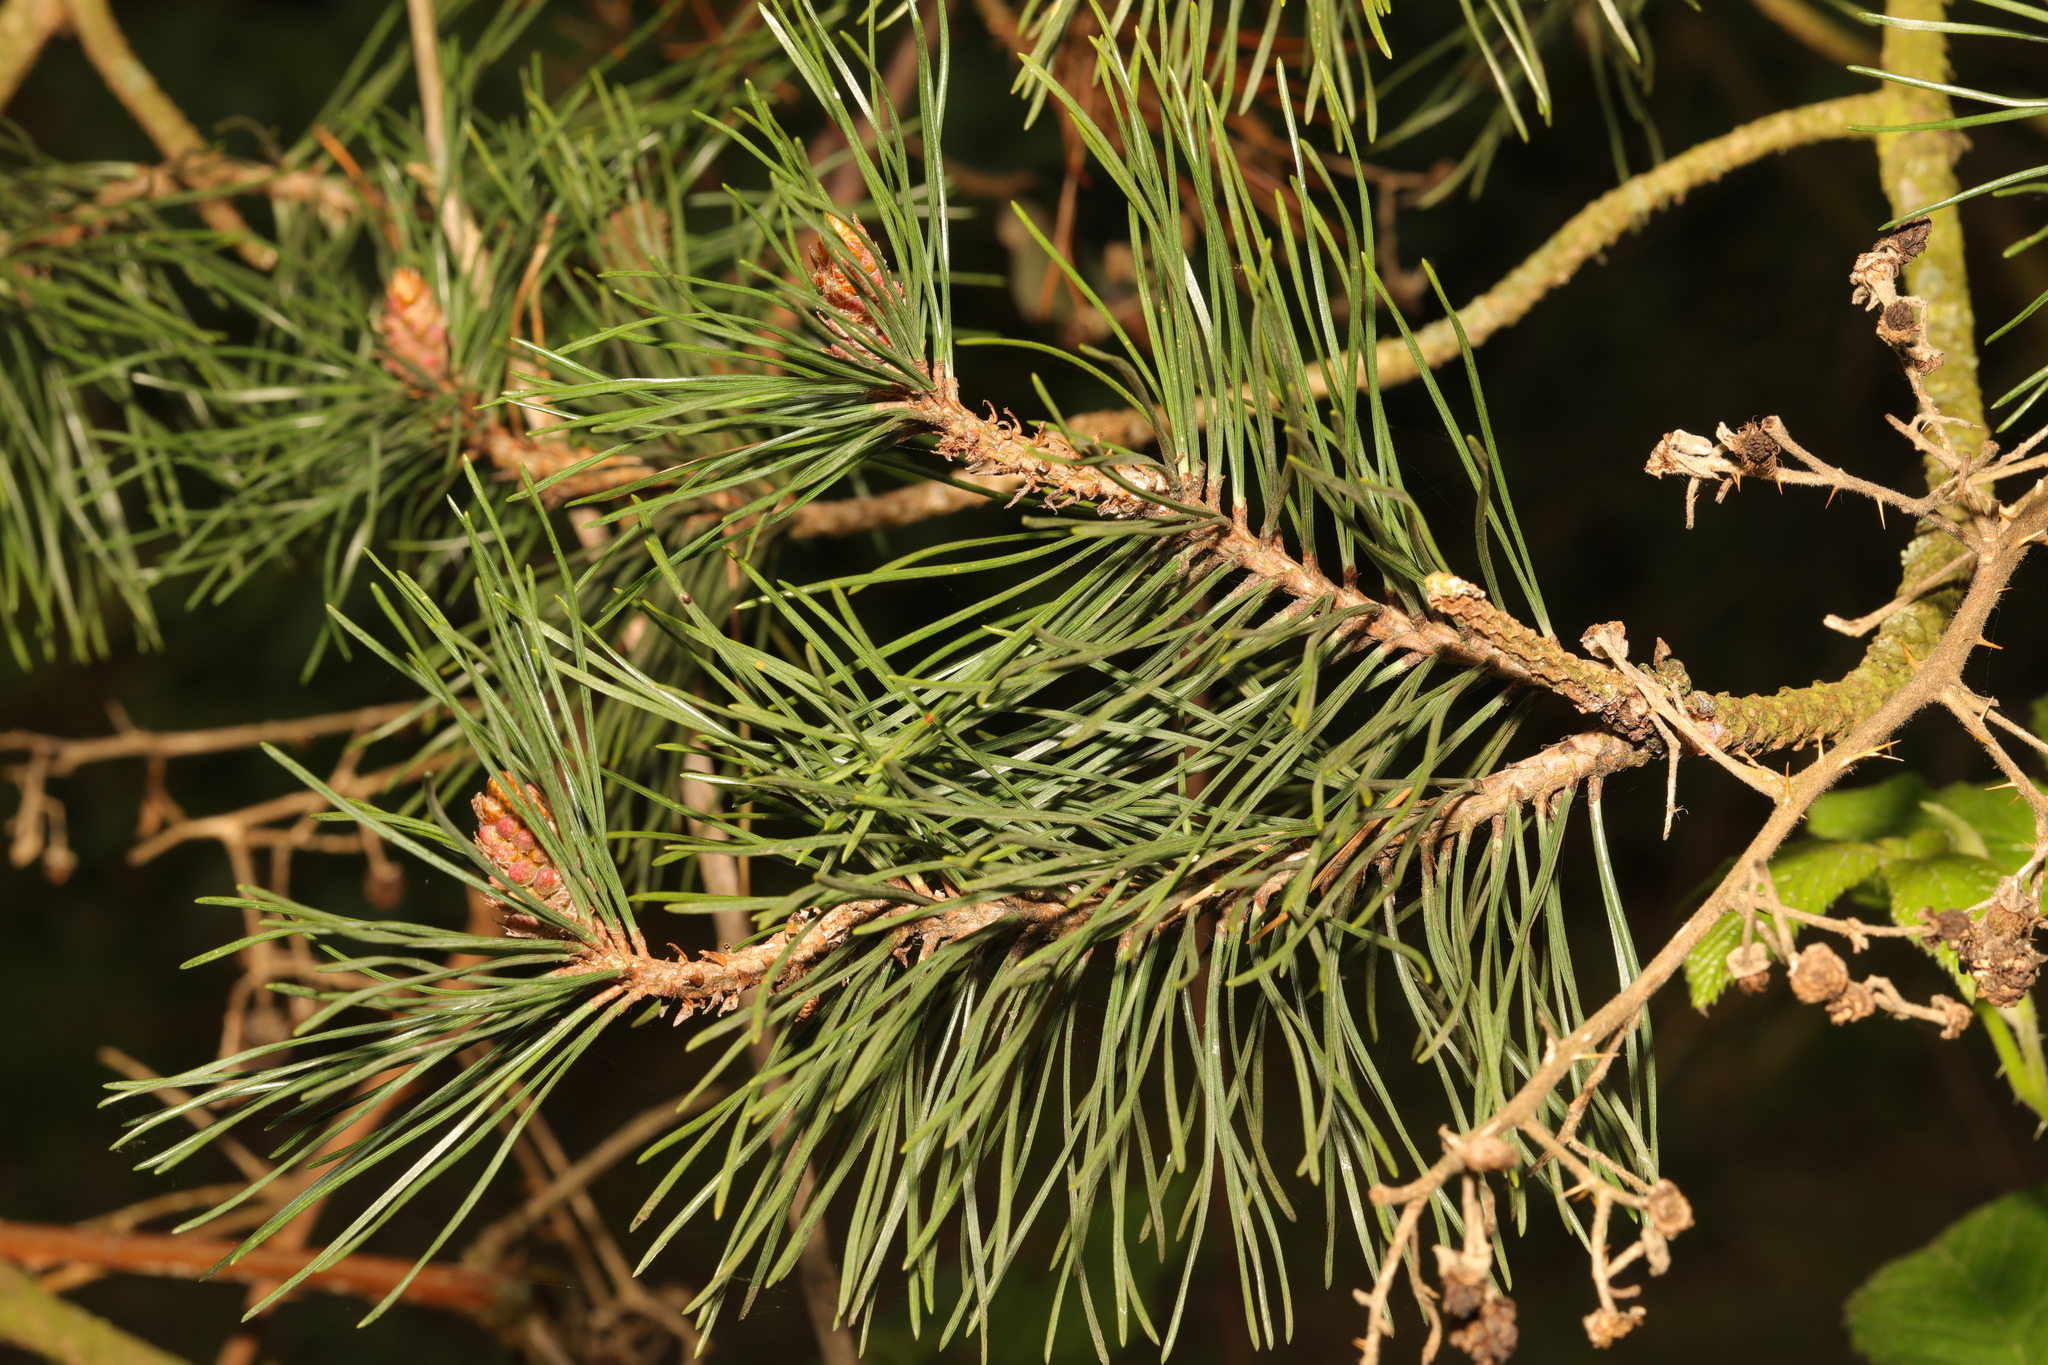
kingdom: Plantae
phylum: Tracheophyta
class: Pinopsida
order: Pinales
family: Pinaceae
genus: Pinus
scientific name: Pinus sylvestris
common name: Scots pine
